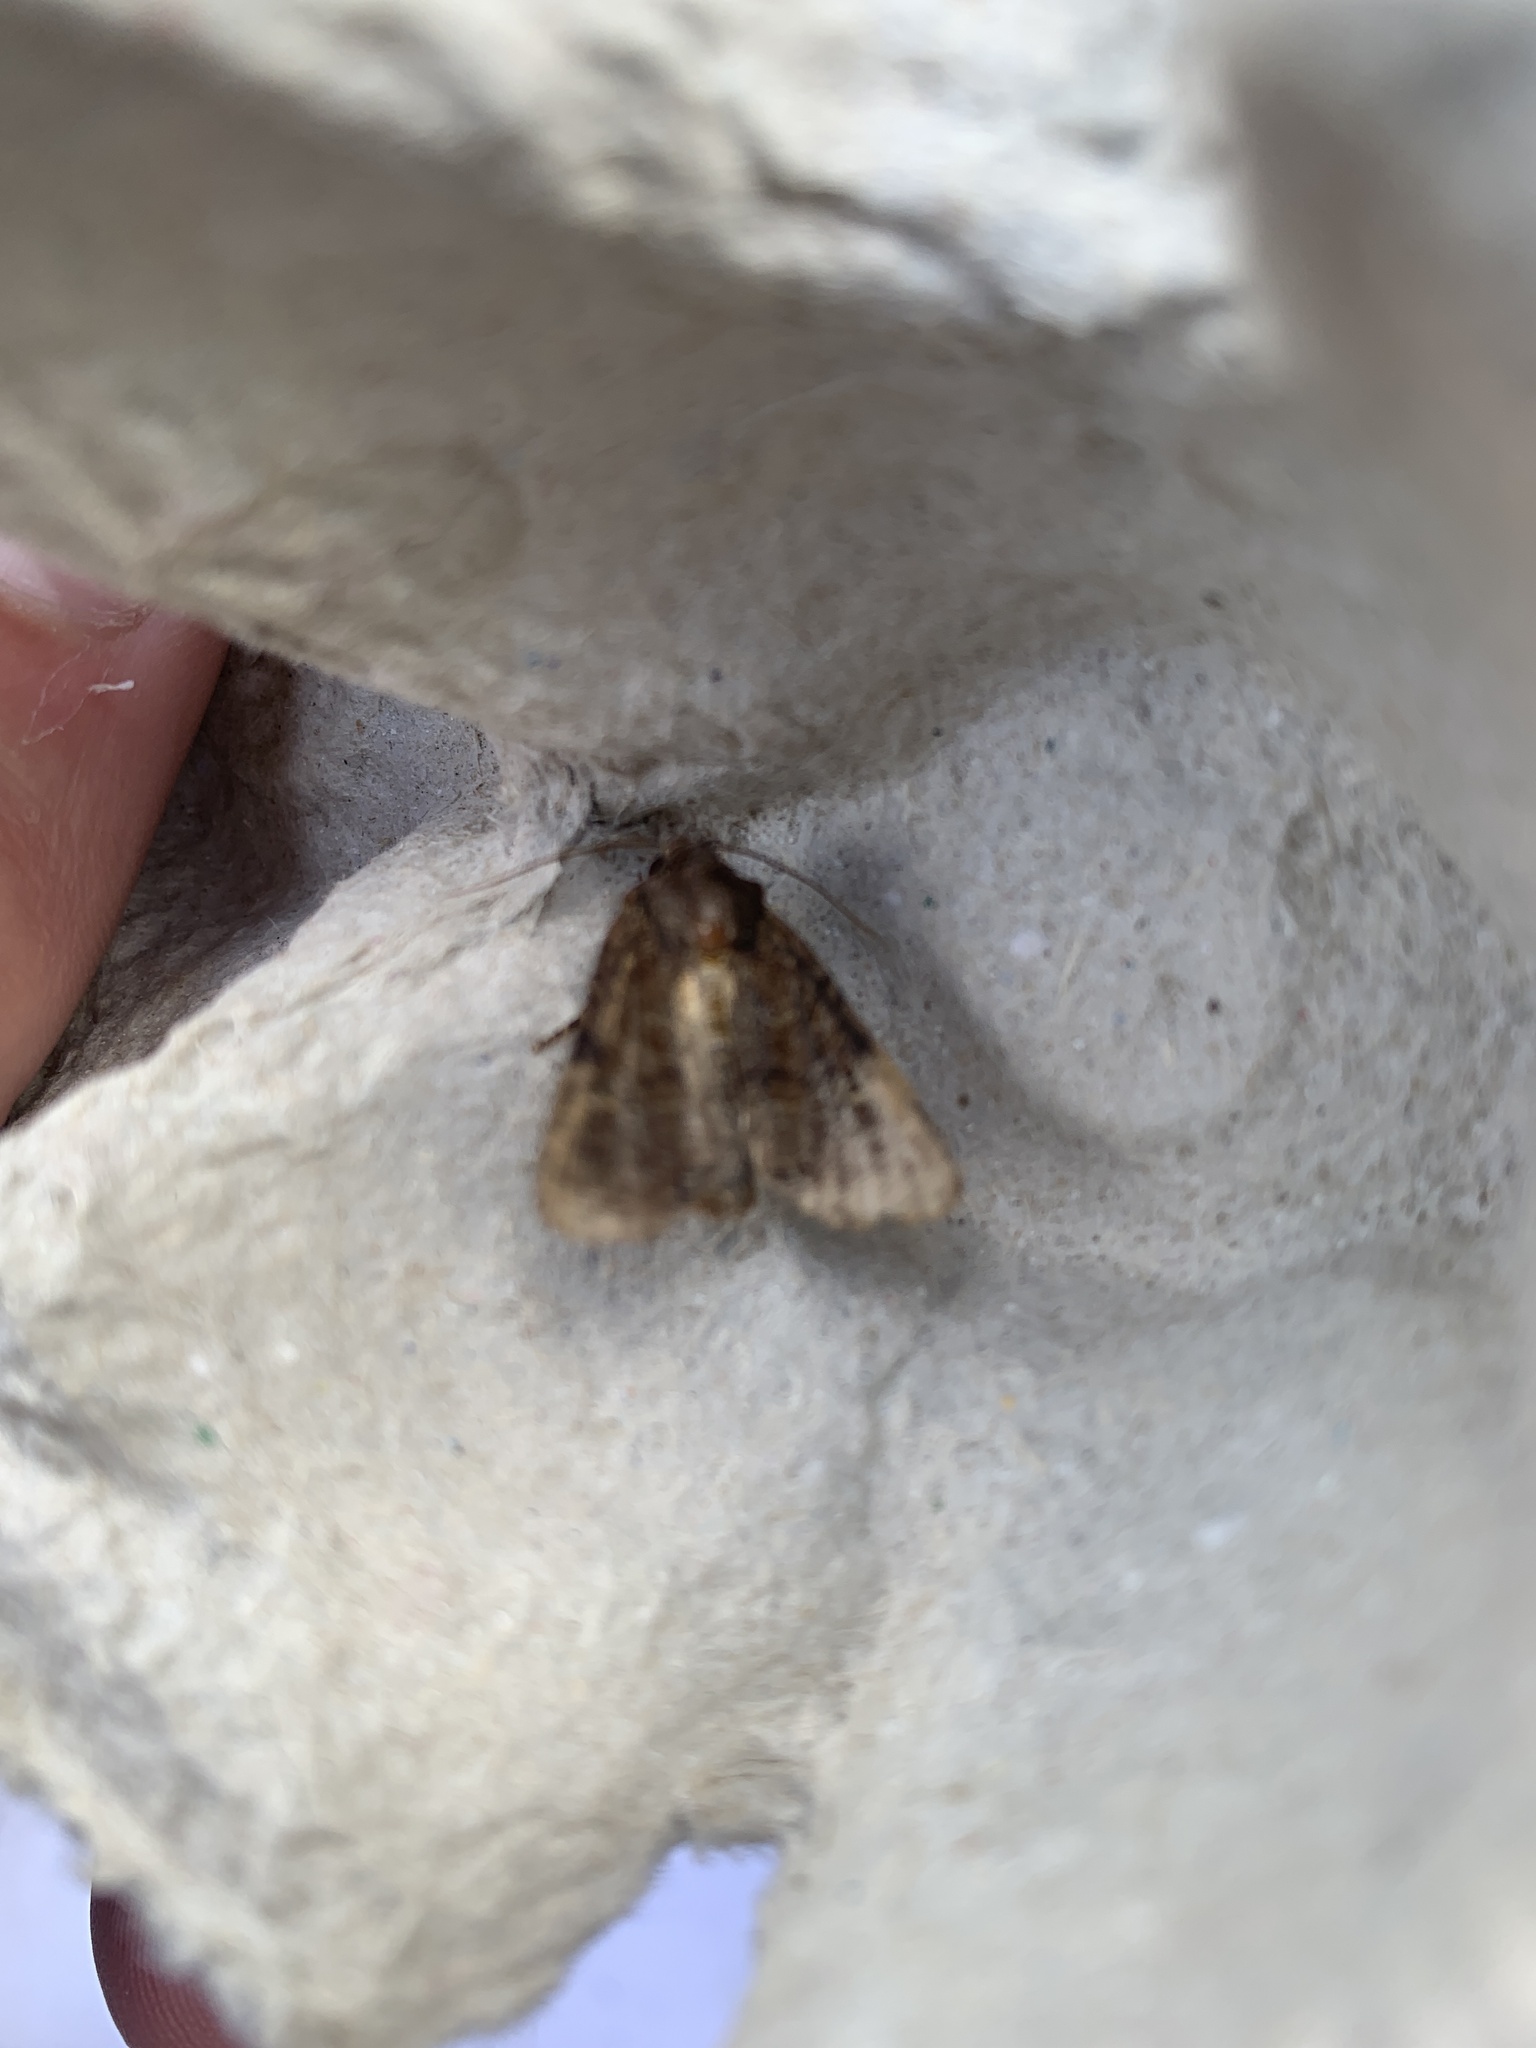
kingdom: Animalia
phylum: Arthropoda
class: Insecta
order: Lepidoptera
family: Noctuidae
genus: Mesapamea
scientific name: Mesapamea secalis
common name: Common rustic
